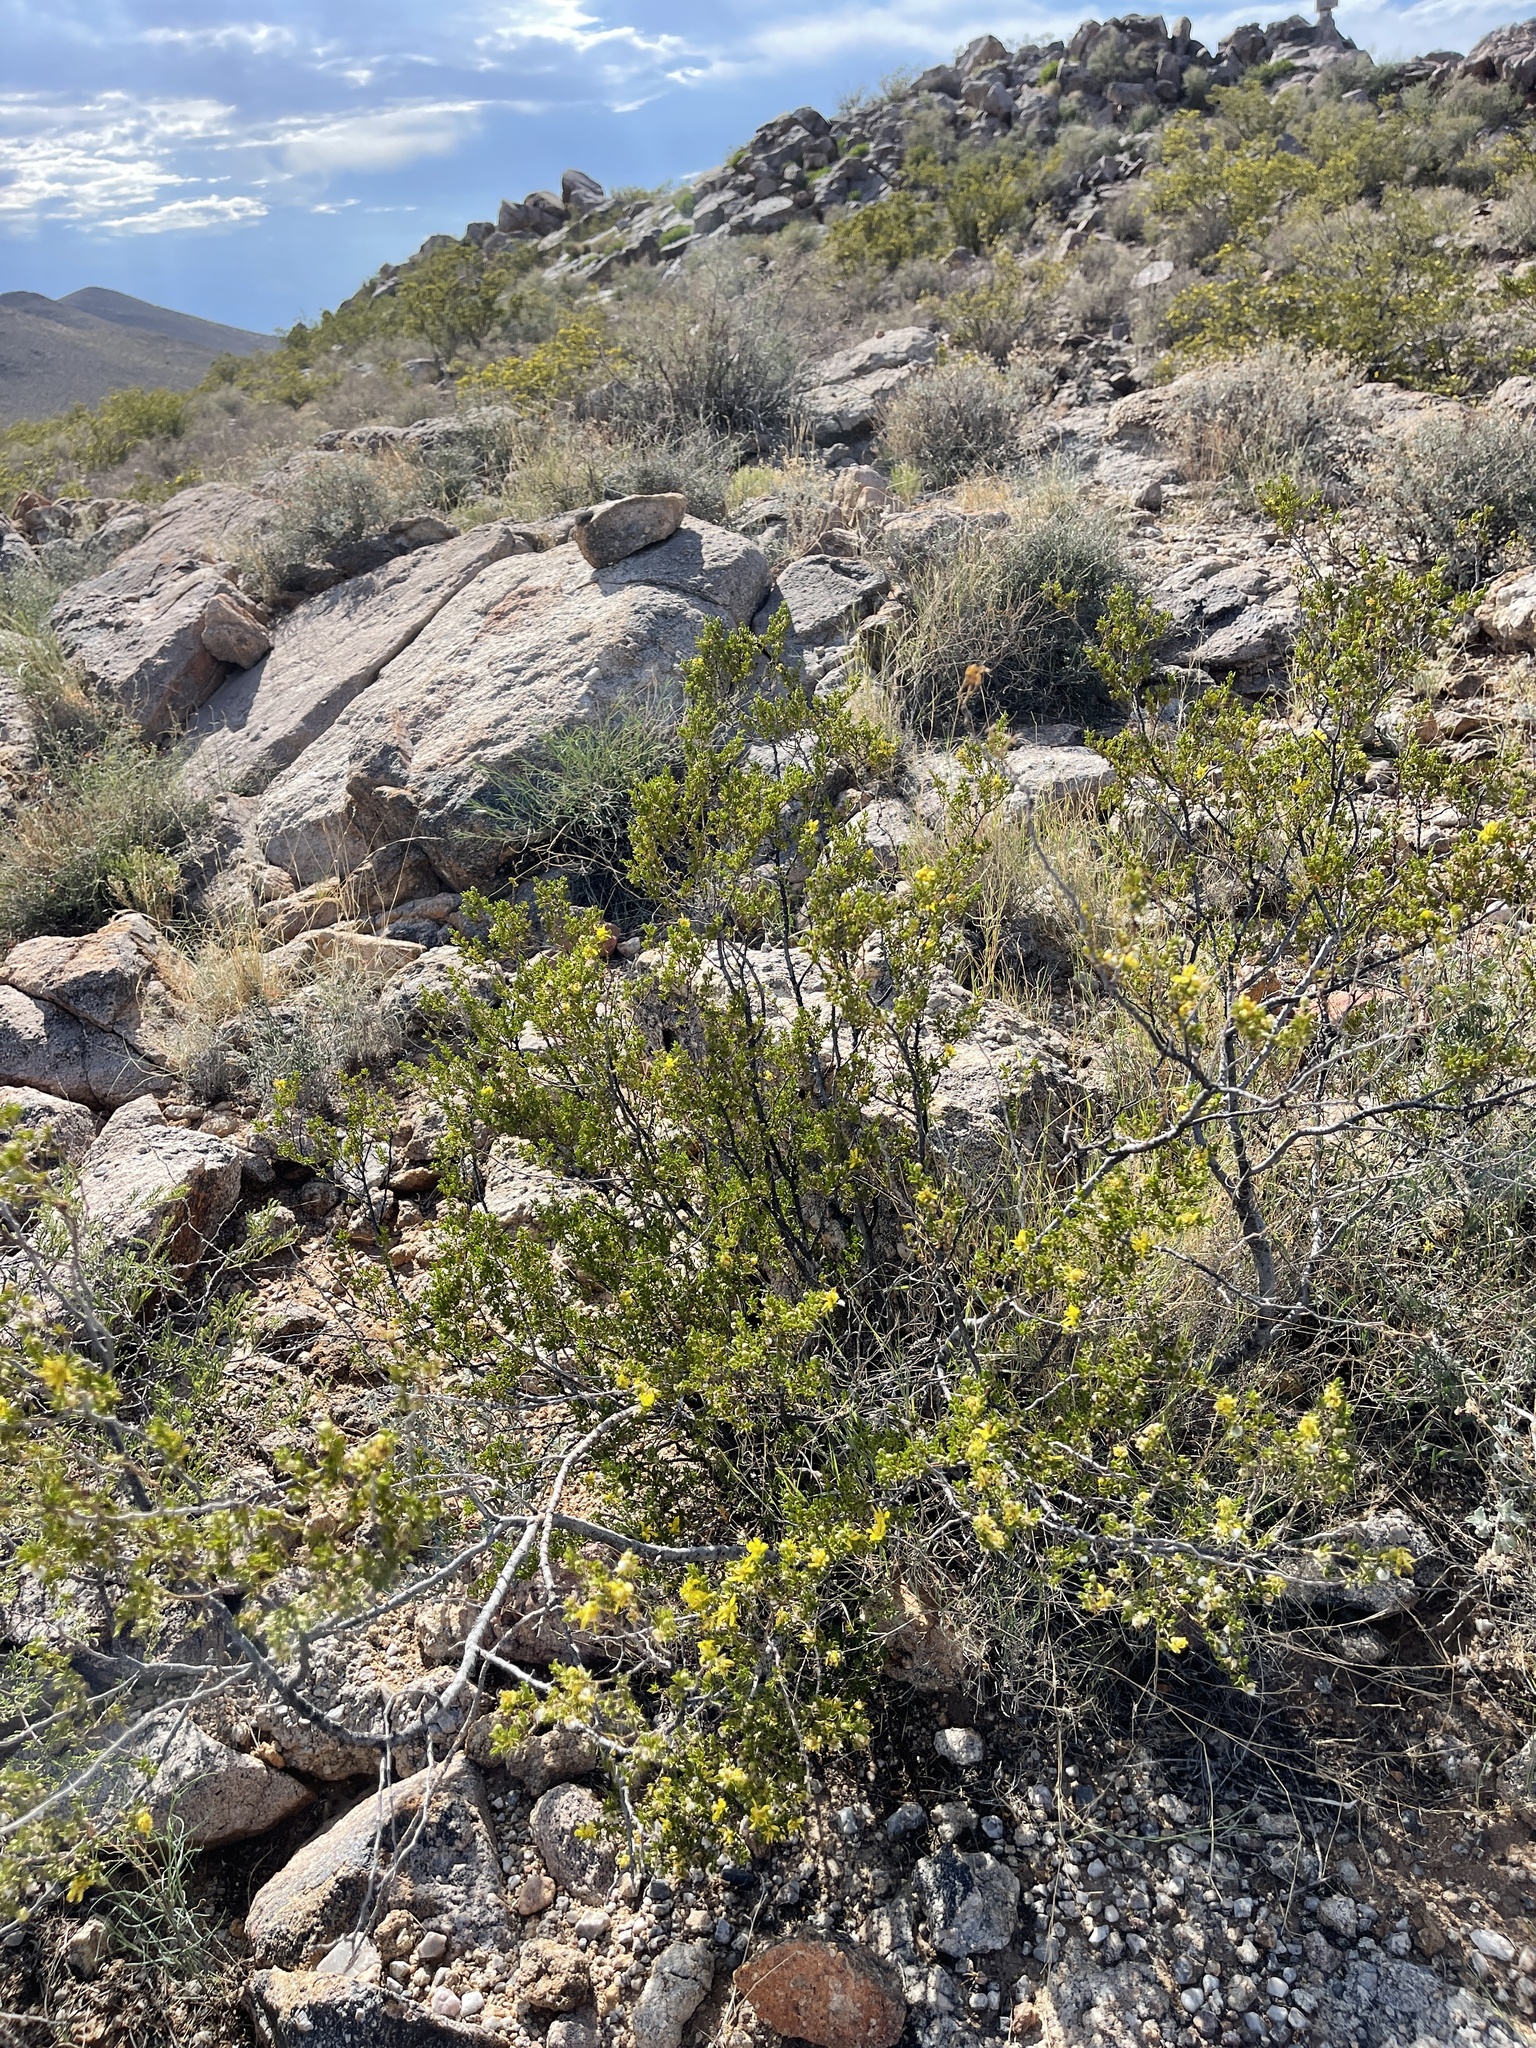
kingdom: Plantae
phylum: Tracheophyta
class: Magnoliopsida
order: Zygophyllales
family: Zygophyllaceae
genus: Larrea
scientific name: Larrea tridentata
